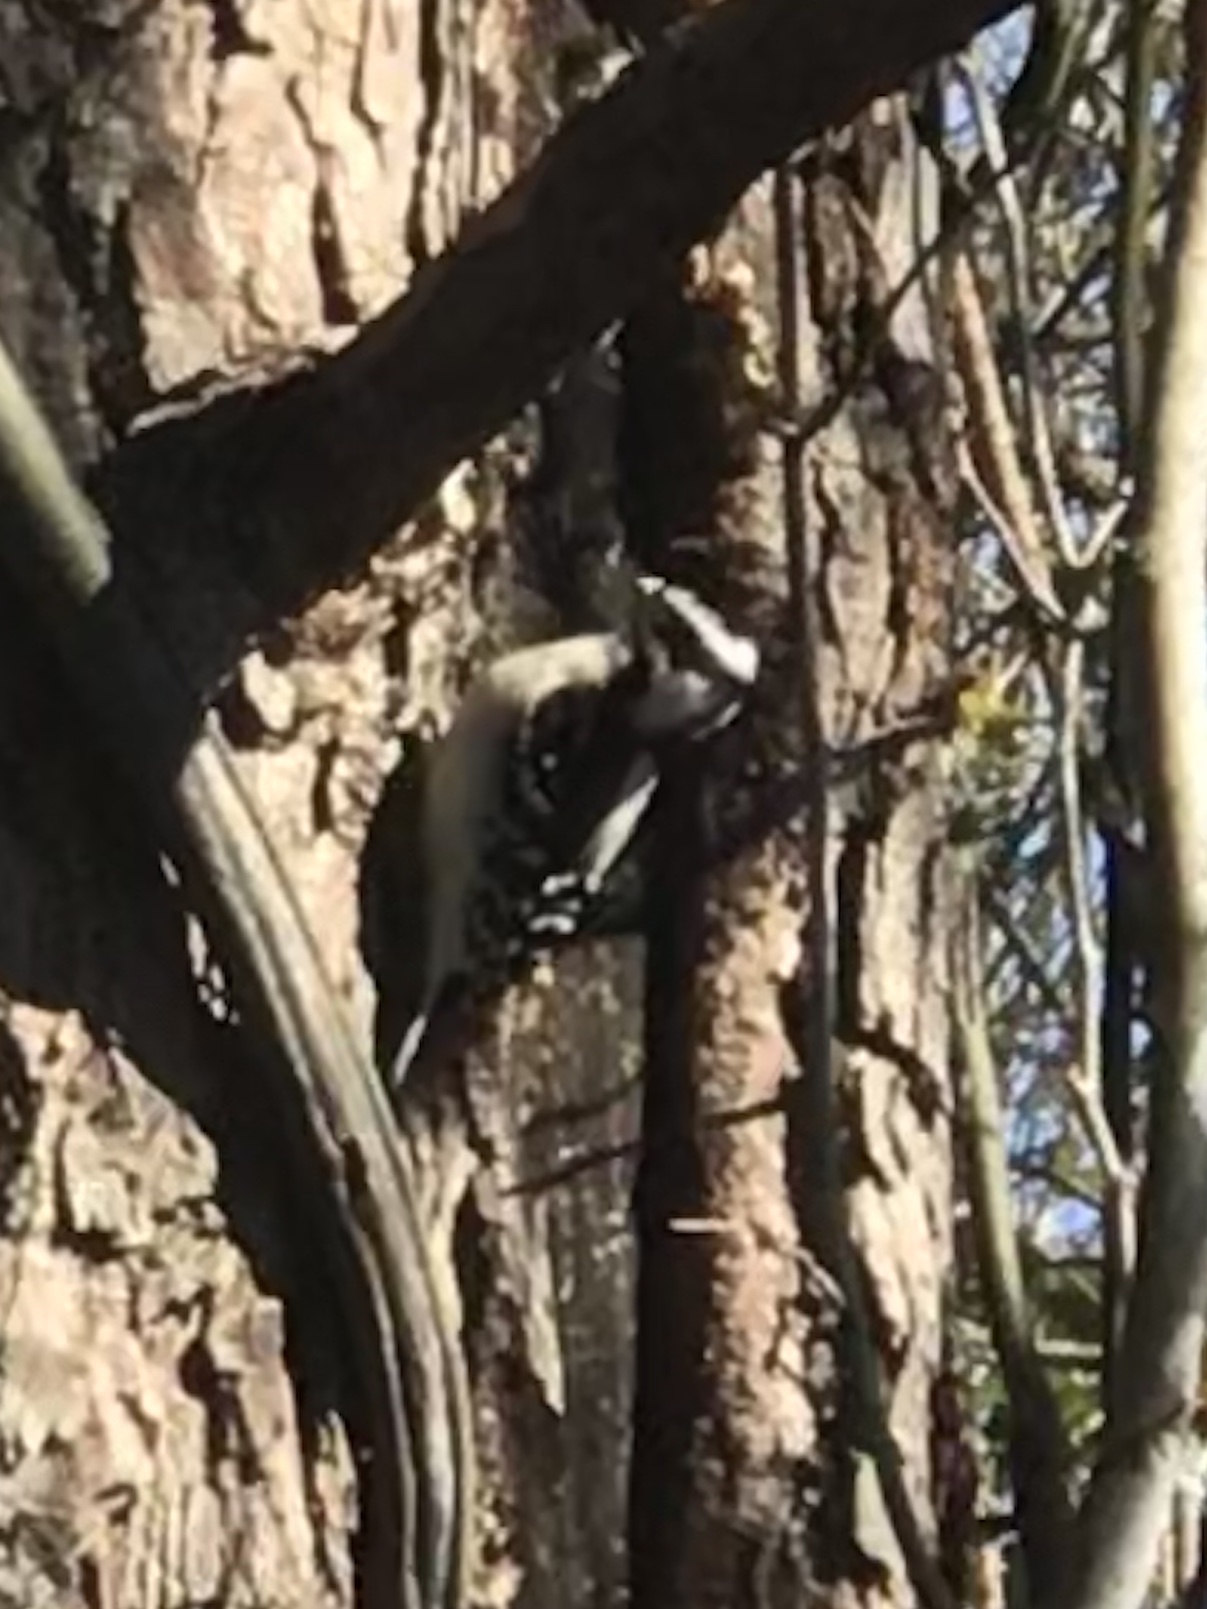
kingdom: Animalia
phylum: Chordata
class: Aves
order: Piciformes
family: Picidae
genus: Dryobates
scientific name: Dryobates pubescens
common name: Downy woodpecker
